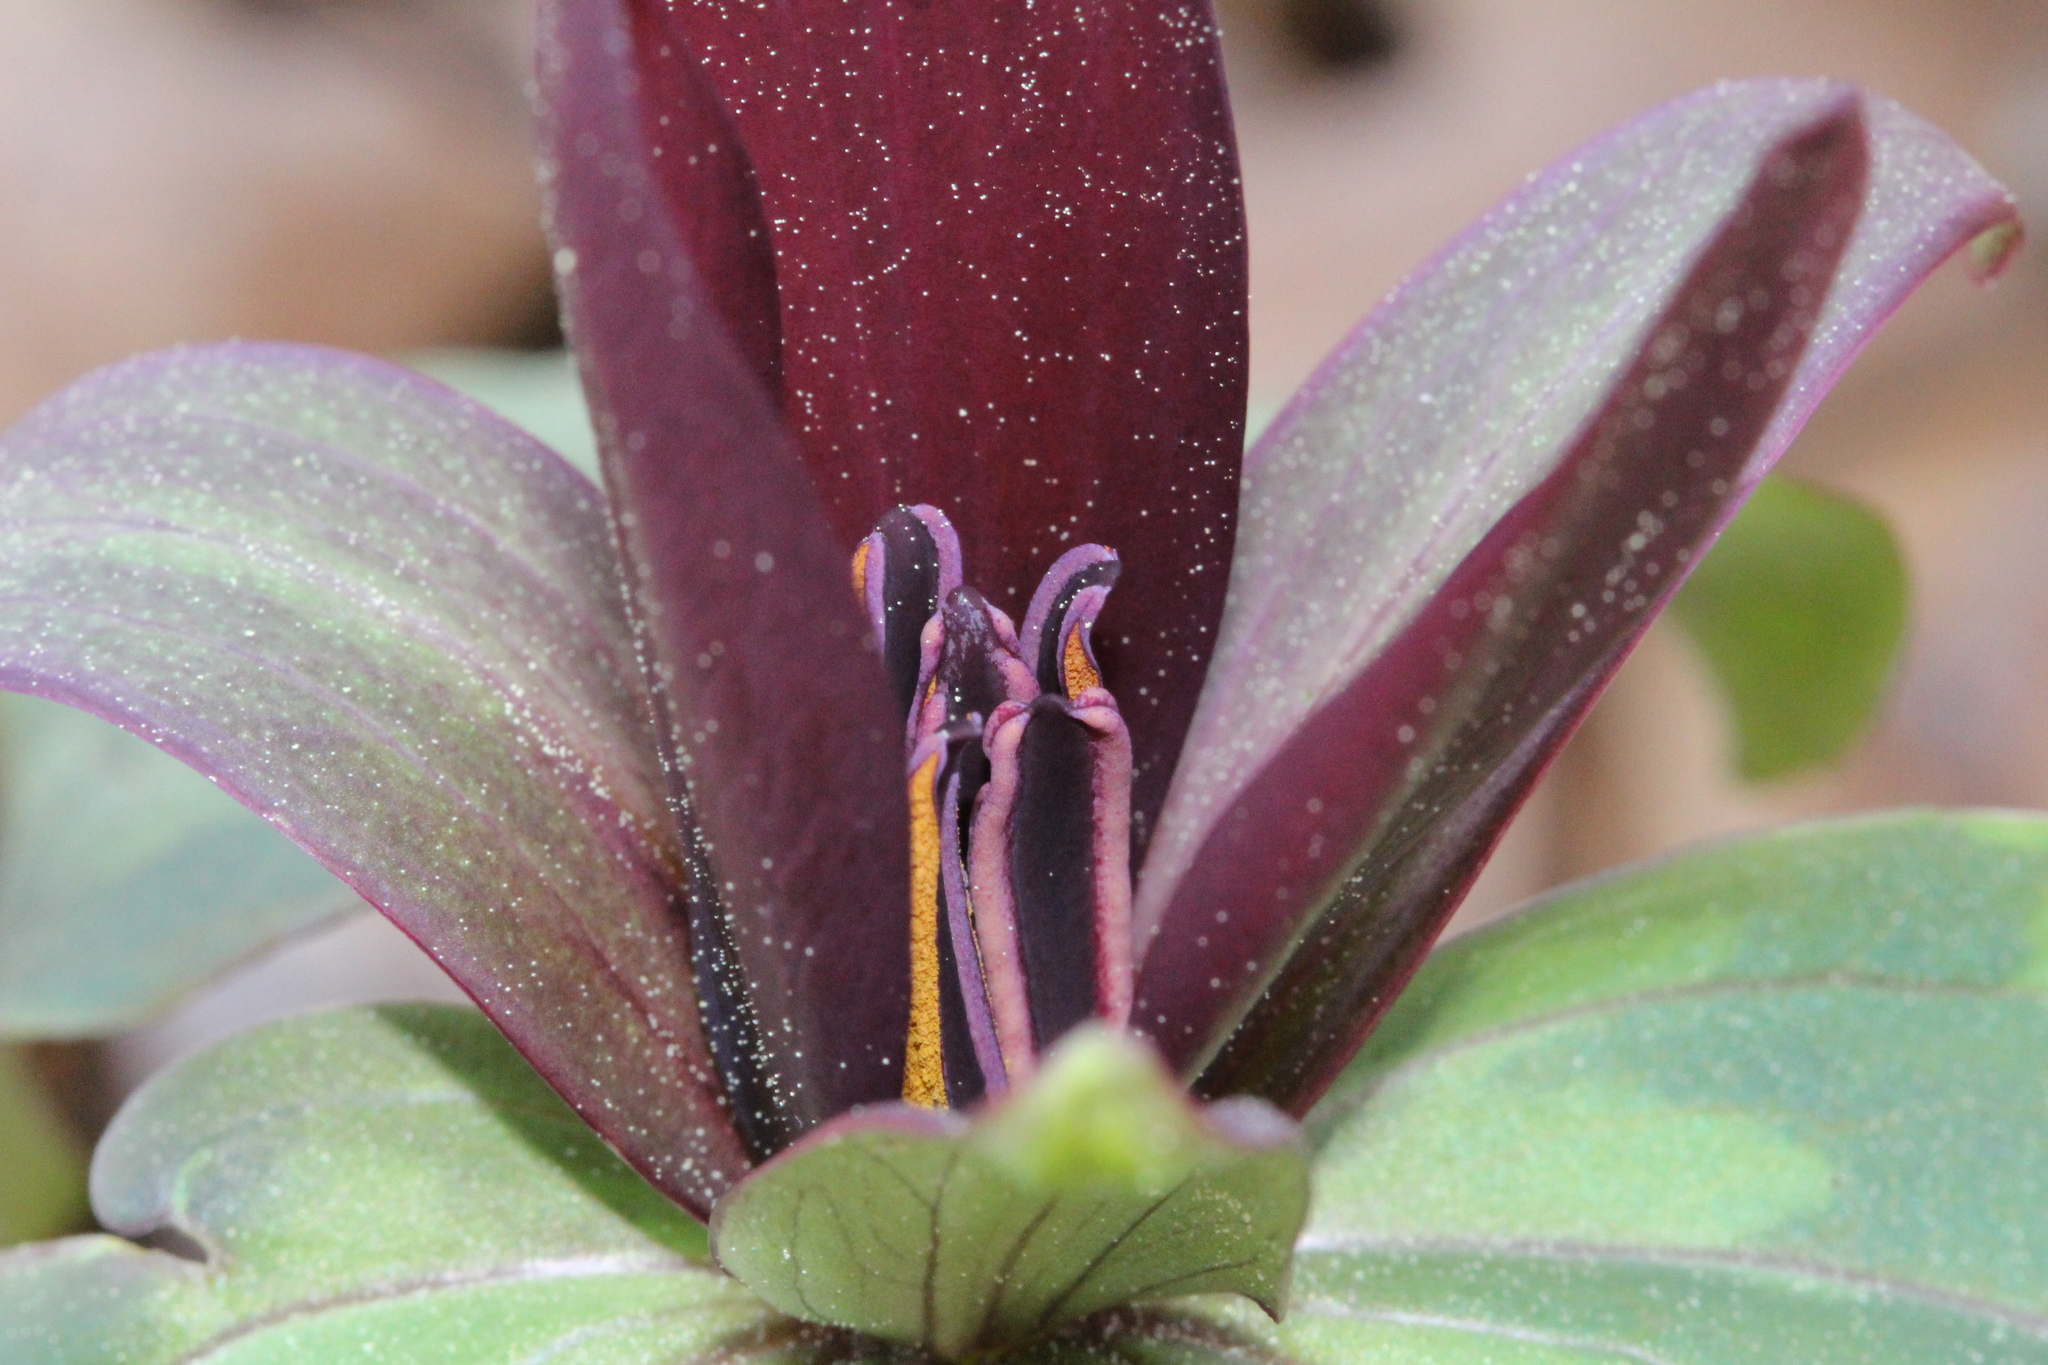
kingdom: Plantae
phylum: Tracheophyta
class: Liliopsida
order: Liliales
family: Melanthiaceae
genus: Trillium
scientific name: Trillium cuneatum
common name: Cuneate trillium
